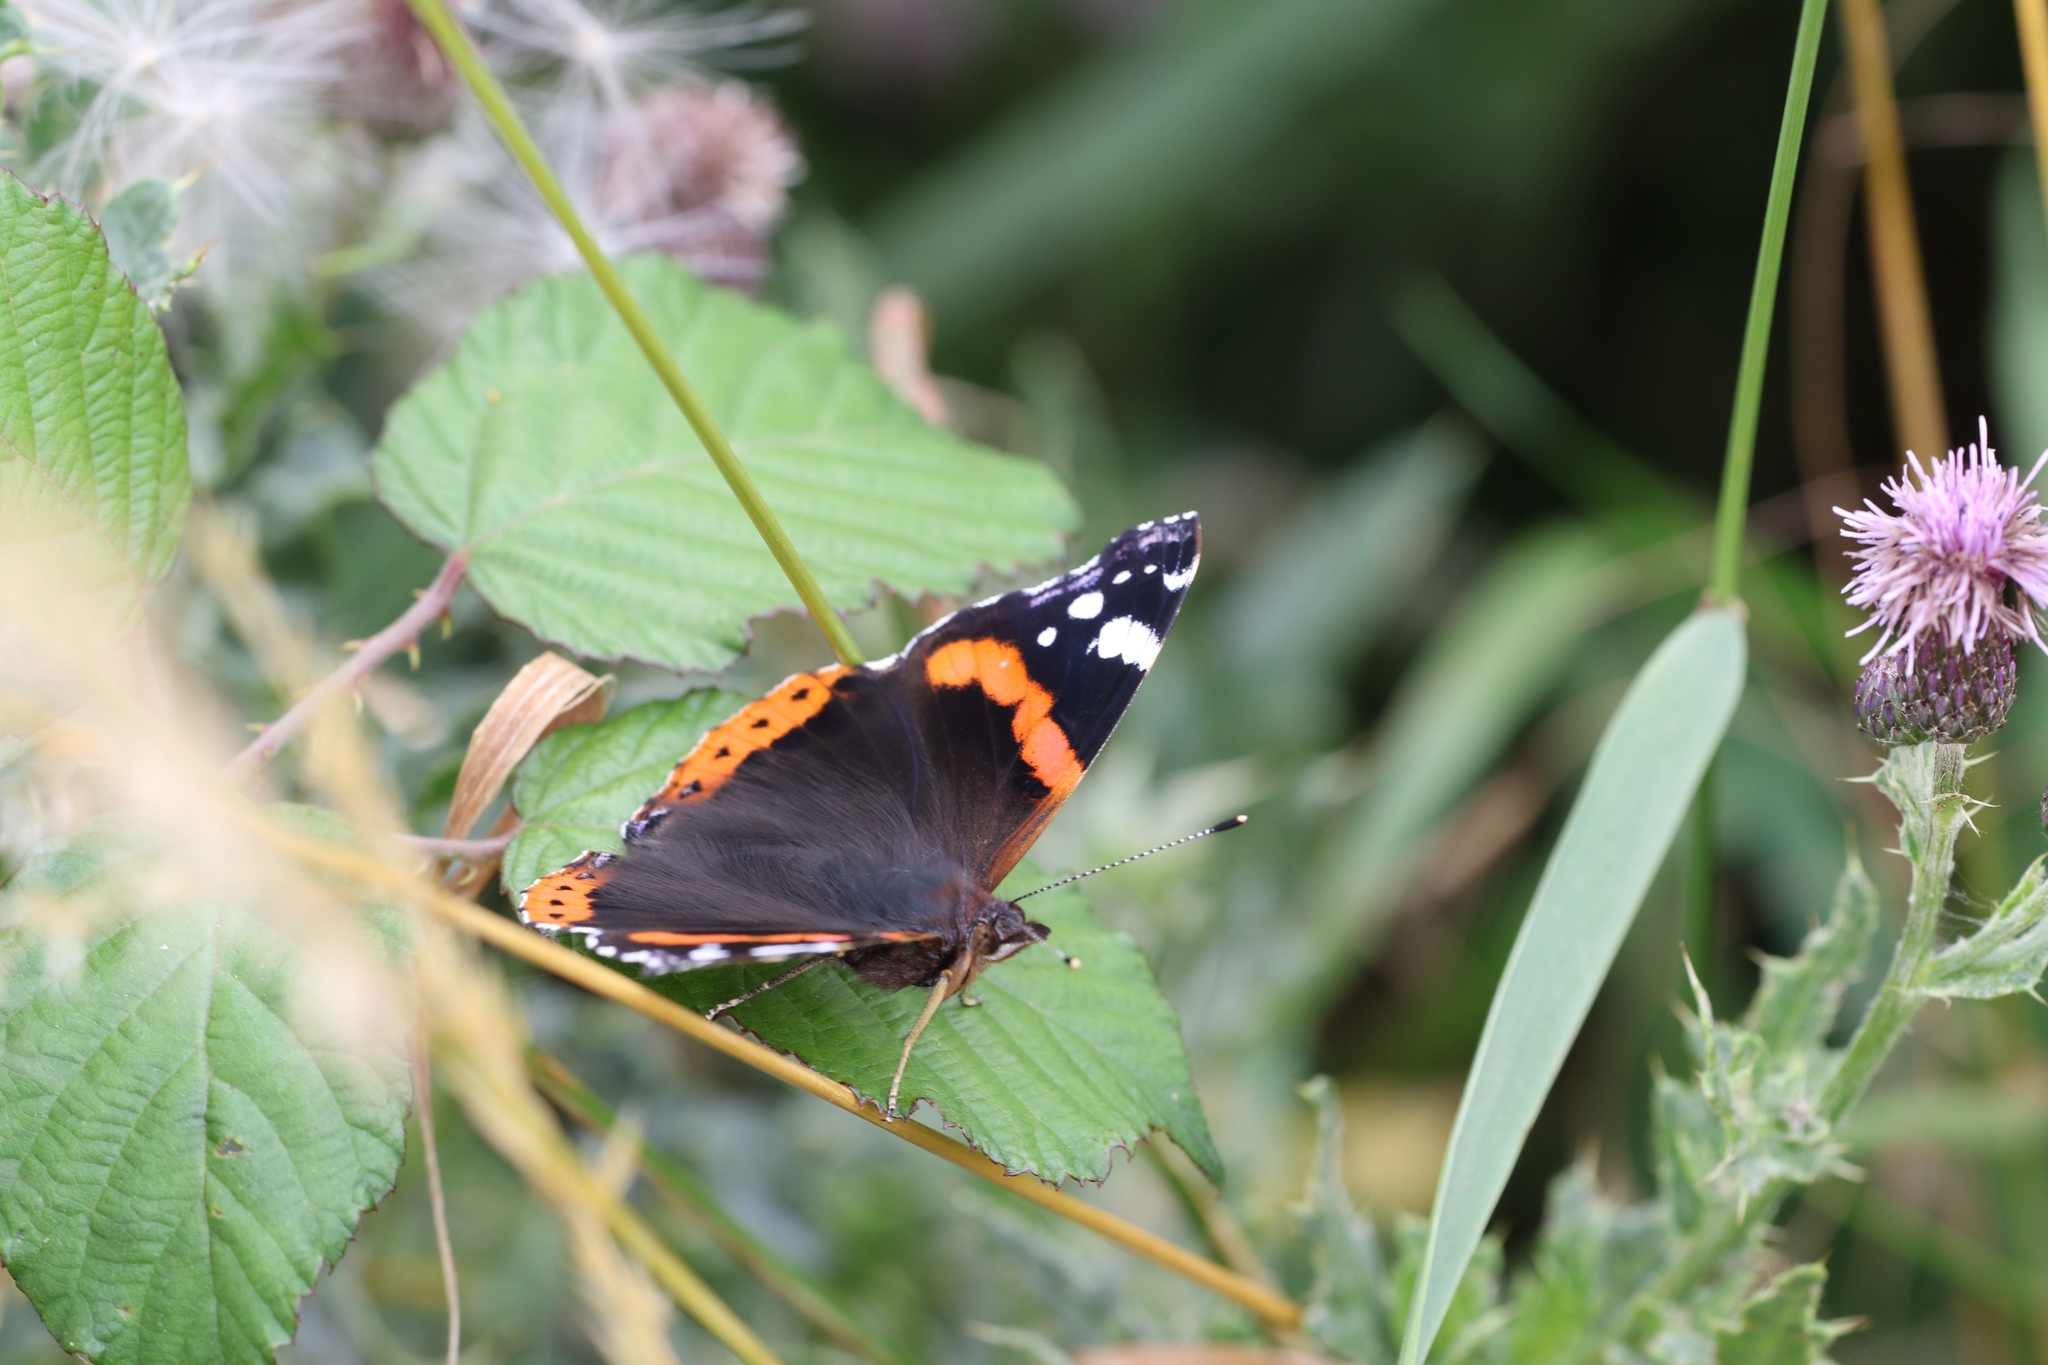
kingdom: Animalia
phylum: Arthropoda
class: Insecta
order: Lepidoptera
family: Nymphalidae
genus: Vanessa
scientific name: Vanessa atalanta
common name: Red admiral
